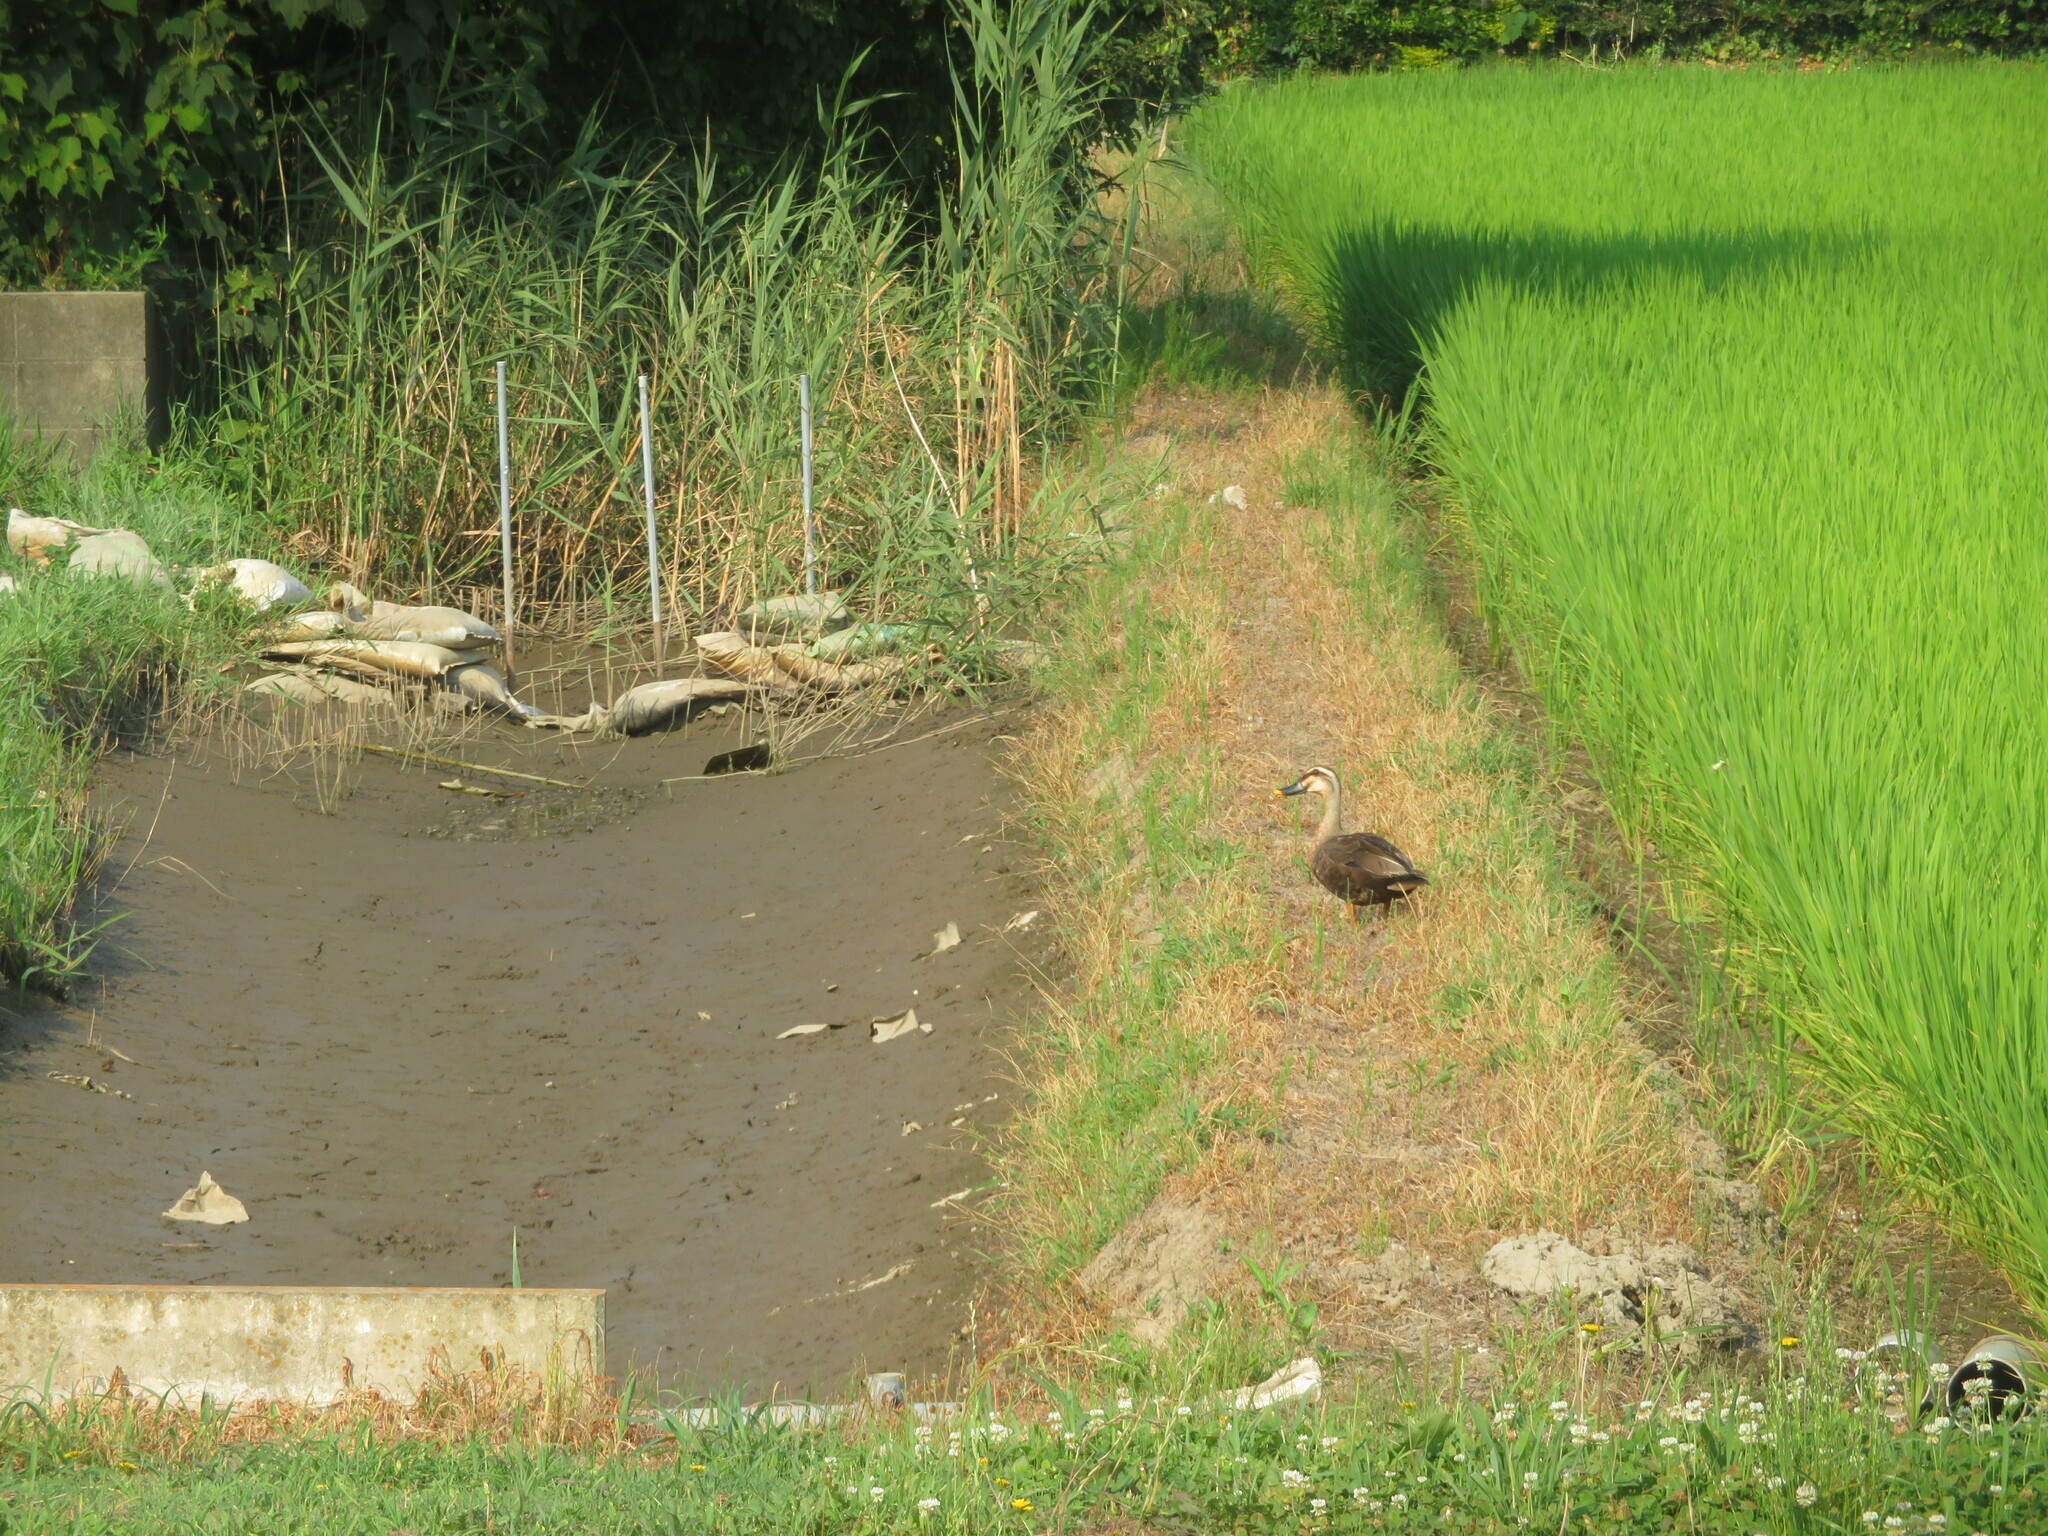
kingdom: Animalia
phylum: Chordata
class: Aves
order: Anseriformes
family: Anatidae
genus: Anas
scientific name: Anas zonorhyncha
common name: Eastern spot-billed duck
